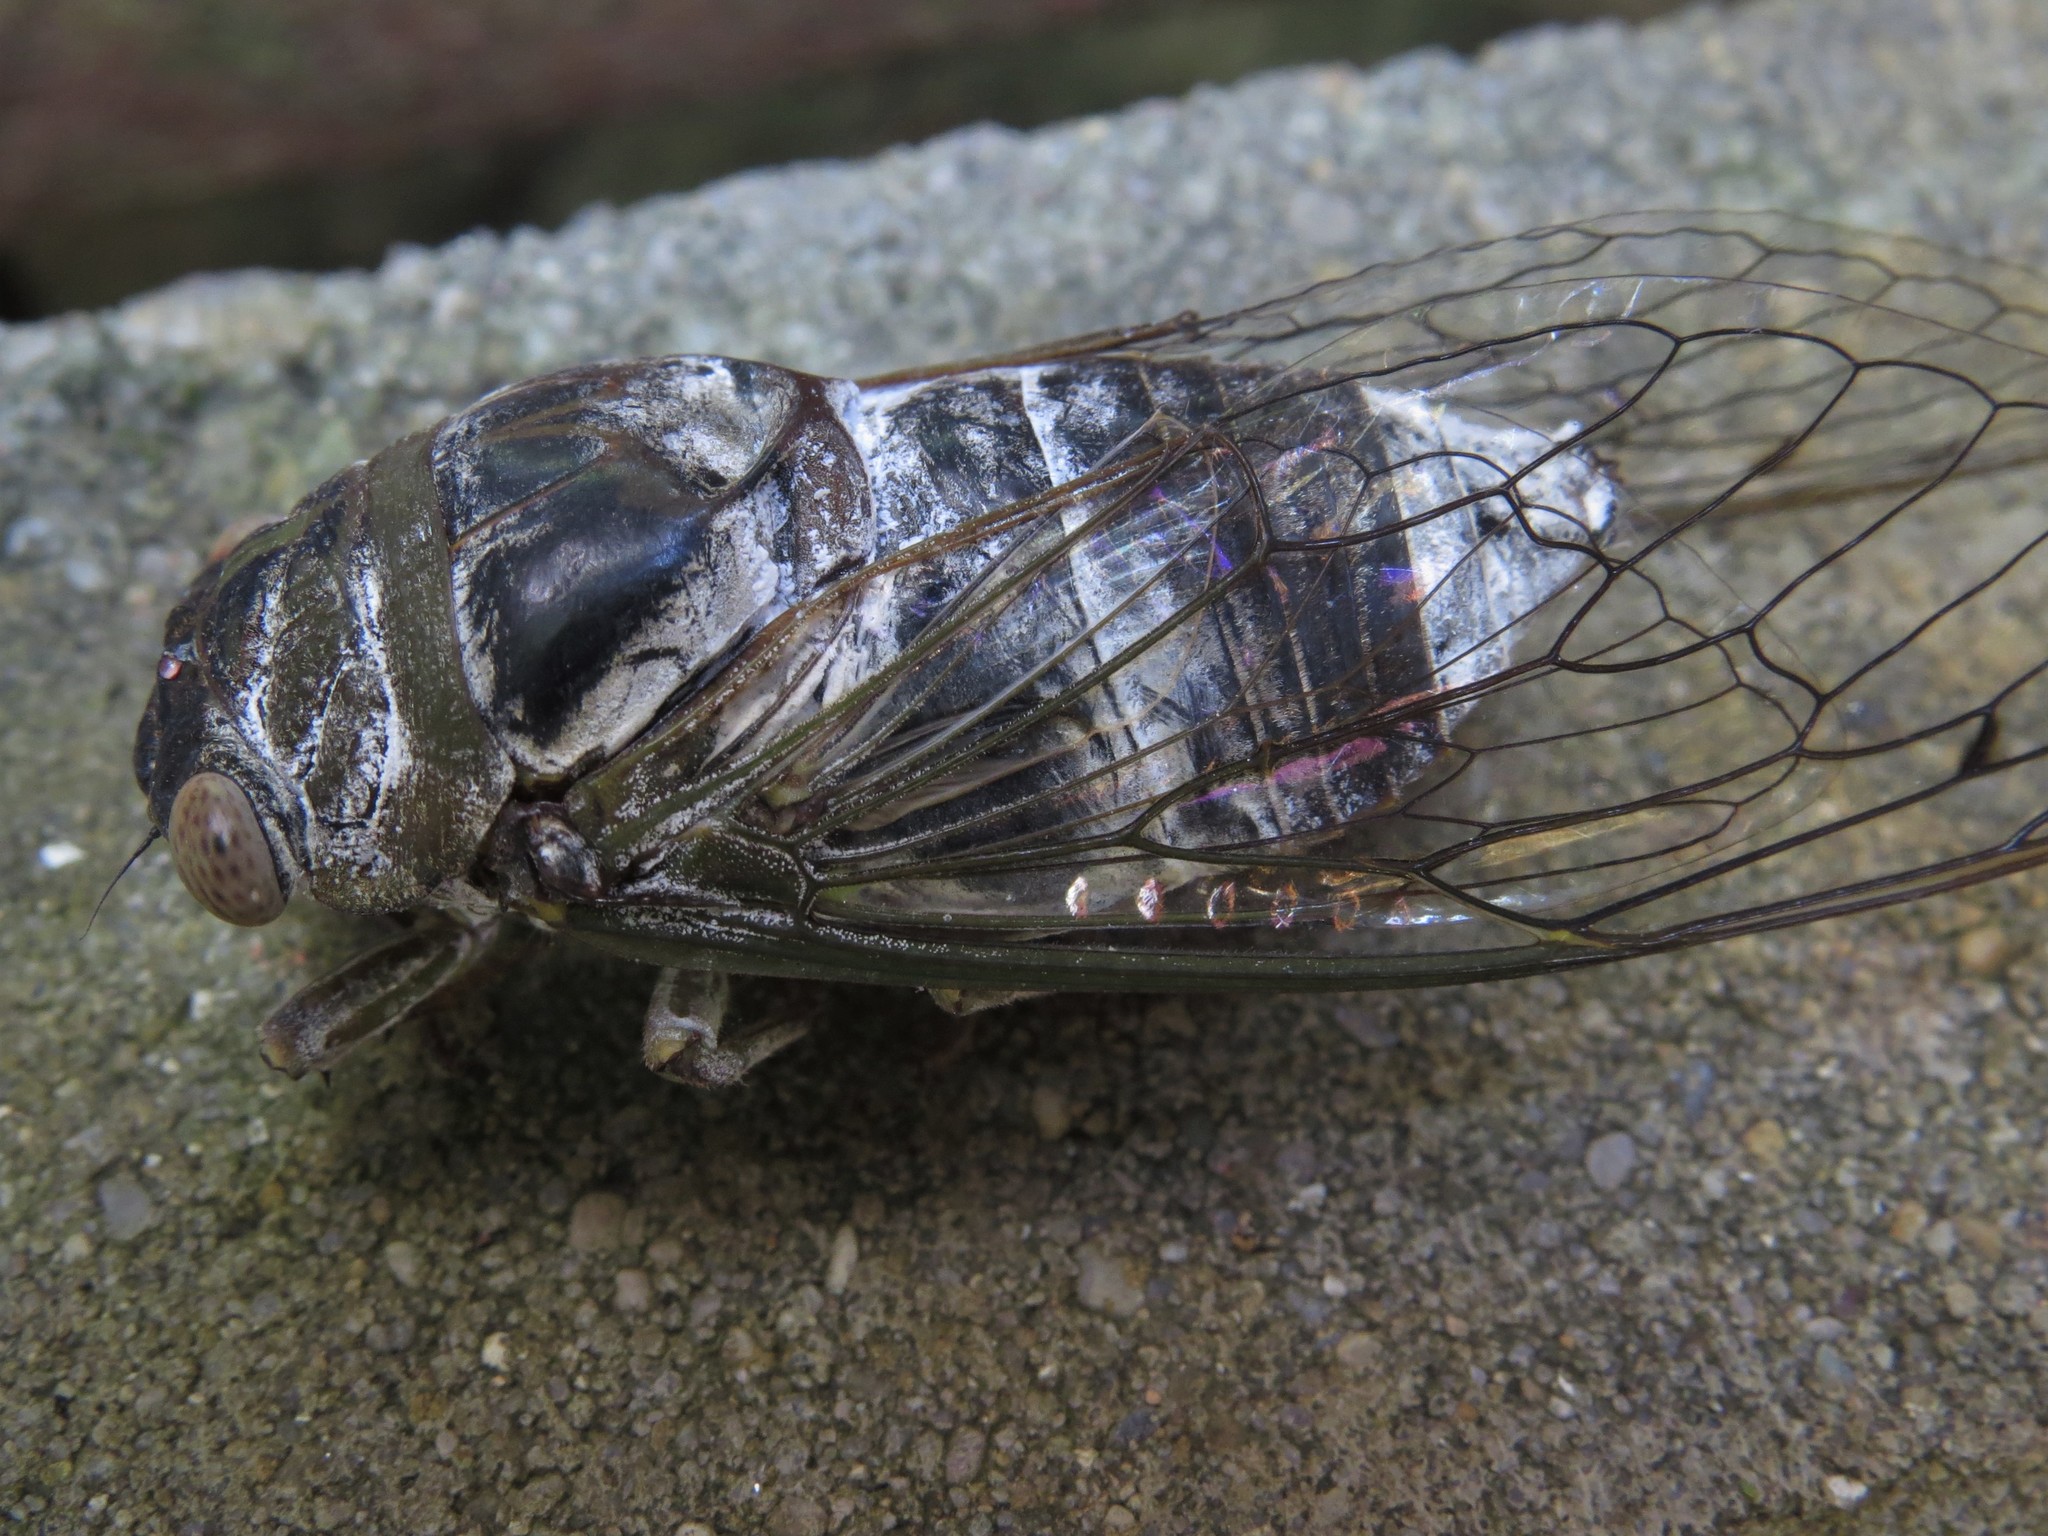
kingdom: Animalia
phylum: Arthropoda
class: Insecta
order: Hemiptera
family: Cicadidae
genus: Diceroprocta
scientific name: Diceroprocta grossa
